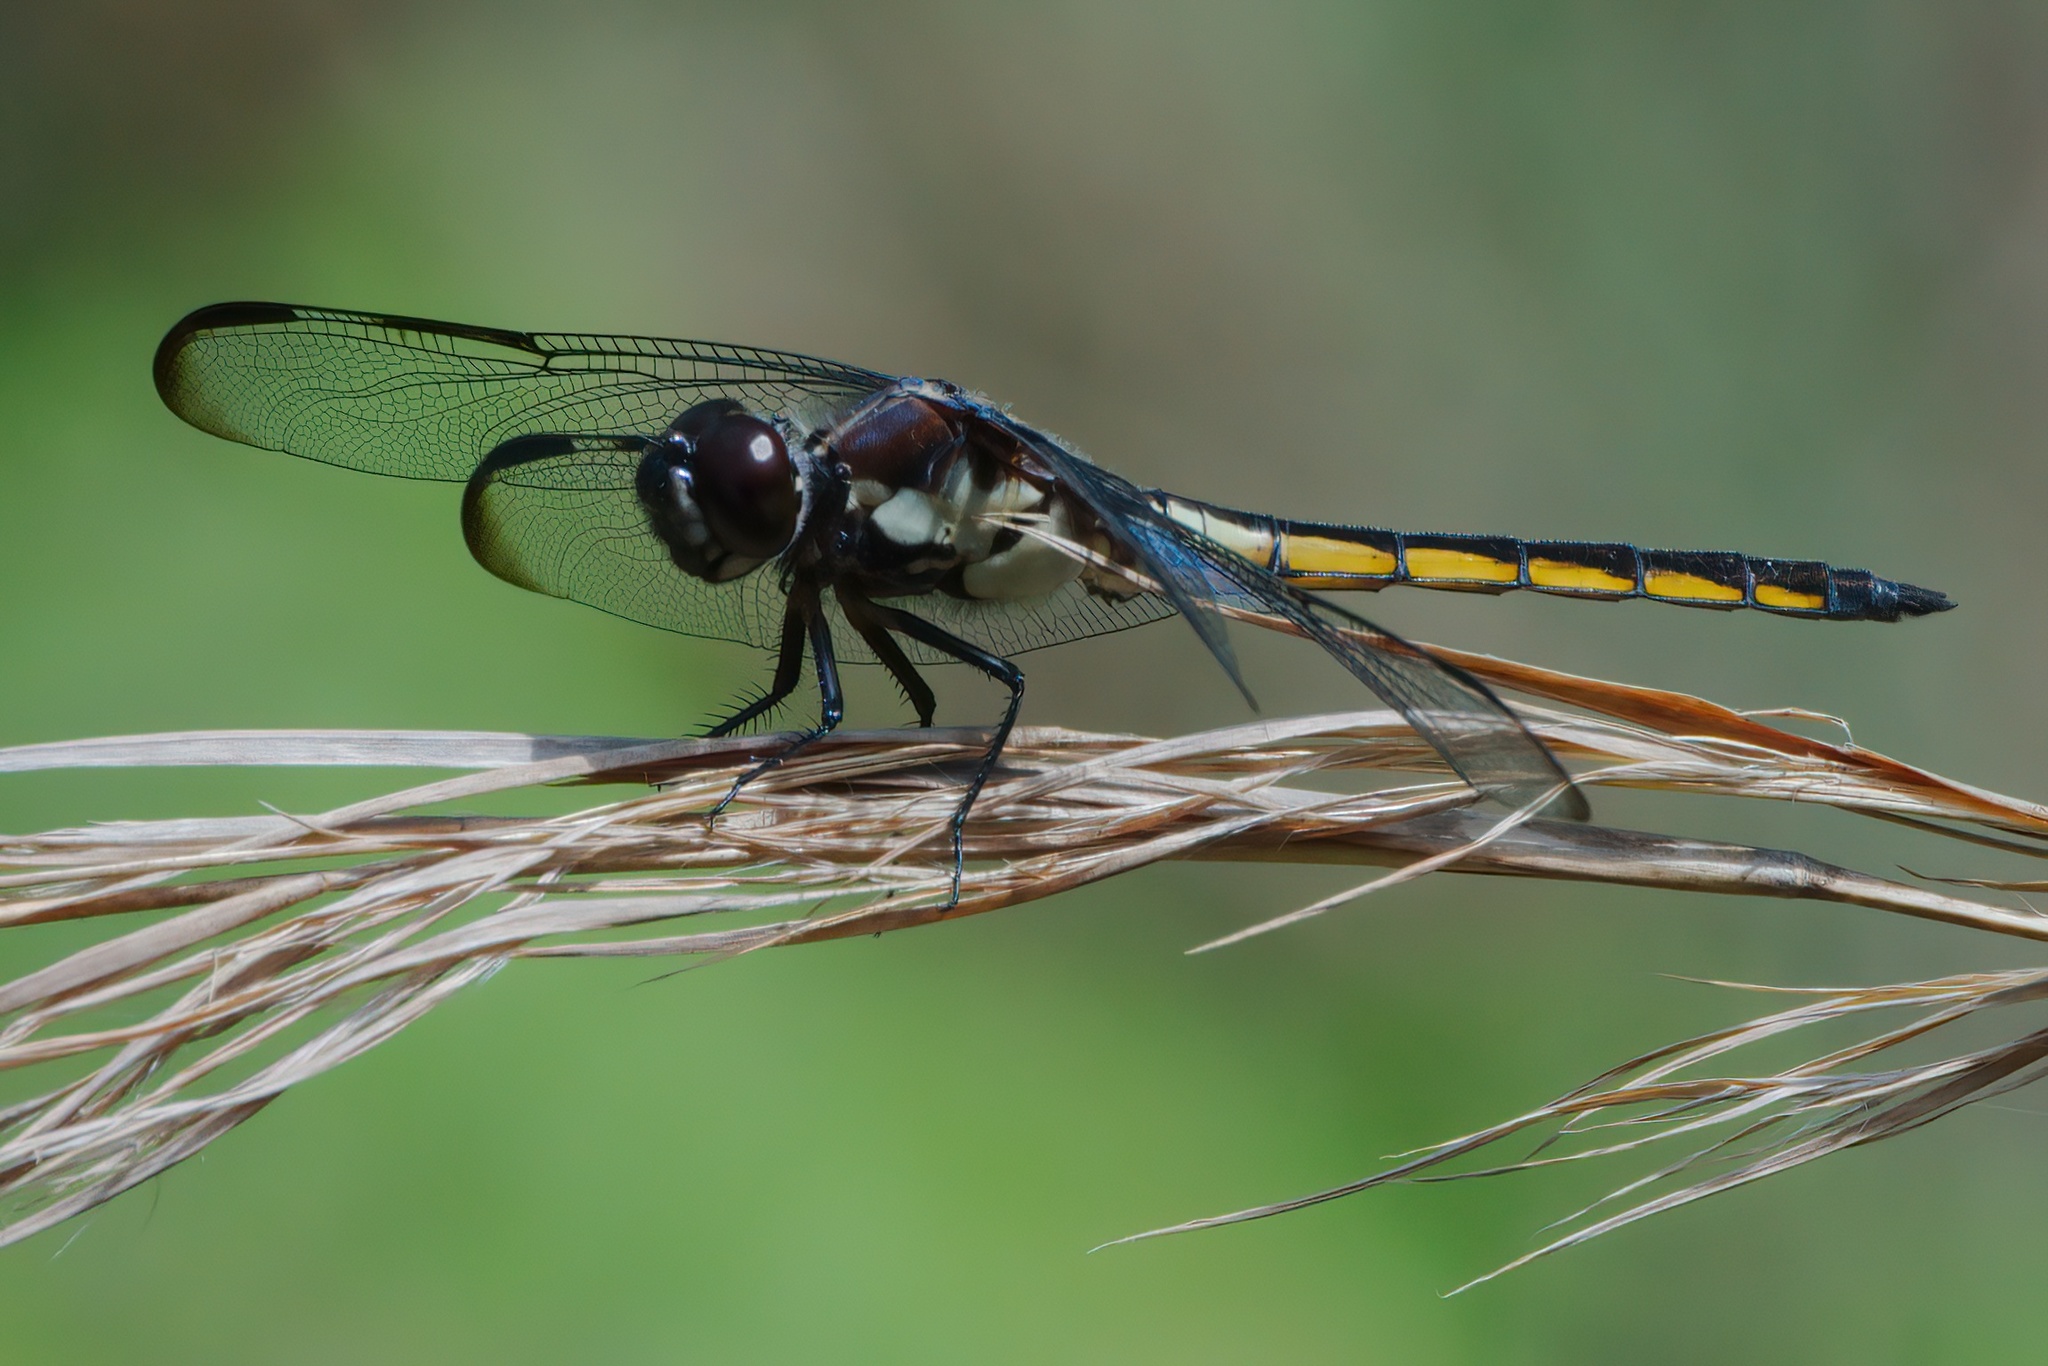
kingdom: Animalia
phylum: Arthropoda
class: Insecta
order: Odonata
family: Libellulidae
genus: Libellula
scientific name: Libellula axilena
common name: Bar-winged skimmer
